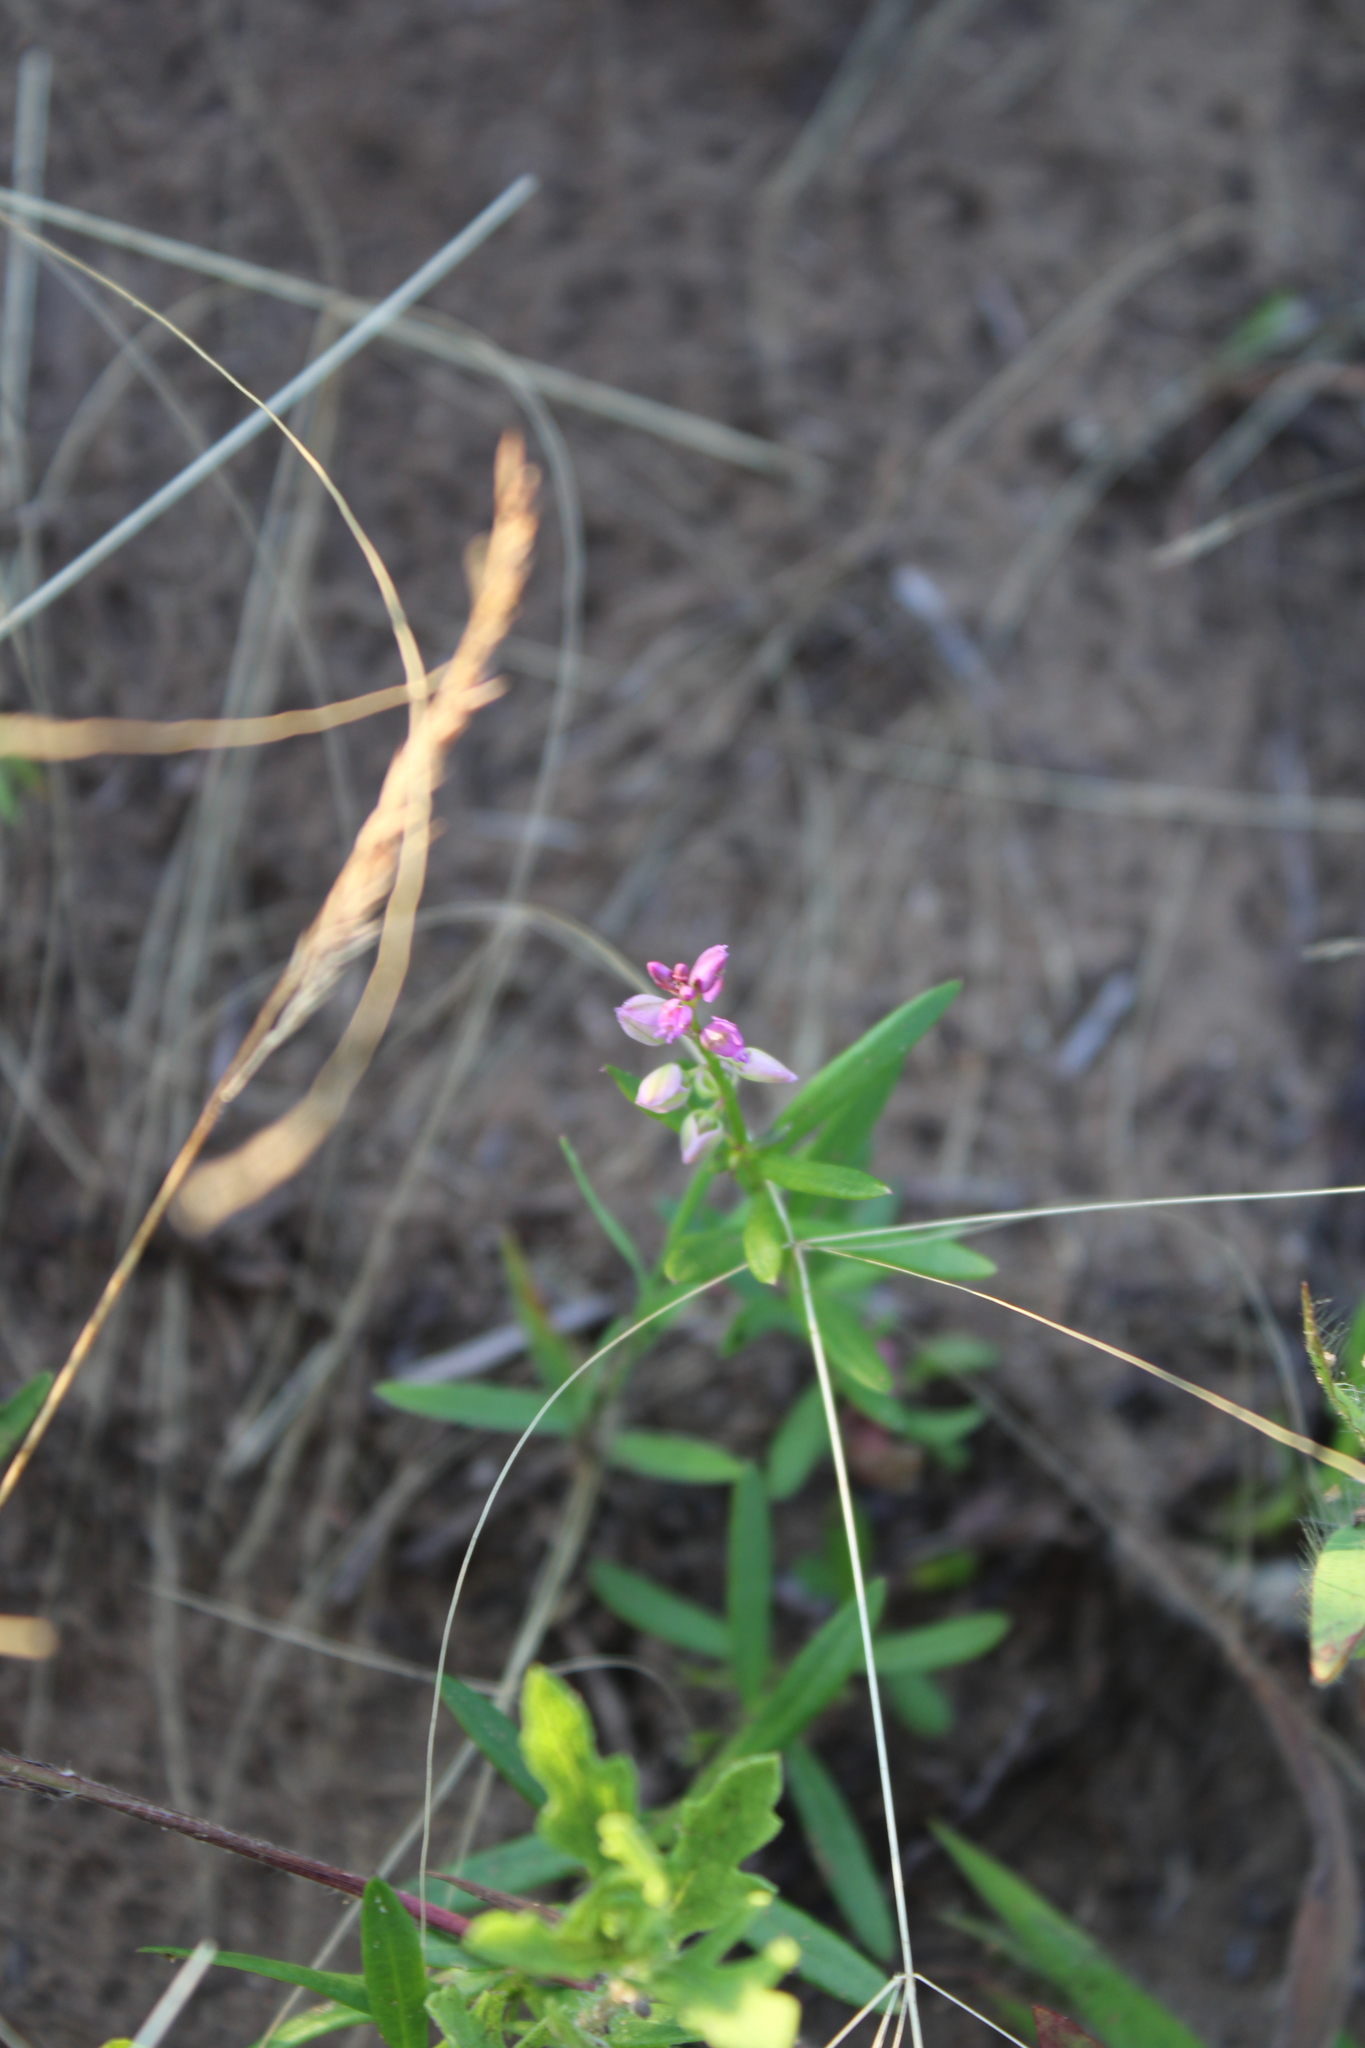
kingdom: Plantae
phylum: Tracheophyta
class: Magnoliopsida
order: Fabales
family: Polygalaceae
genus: Polygala
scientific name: Polygala polygama
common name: Bitter milkwort
